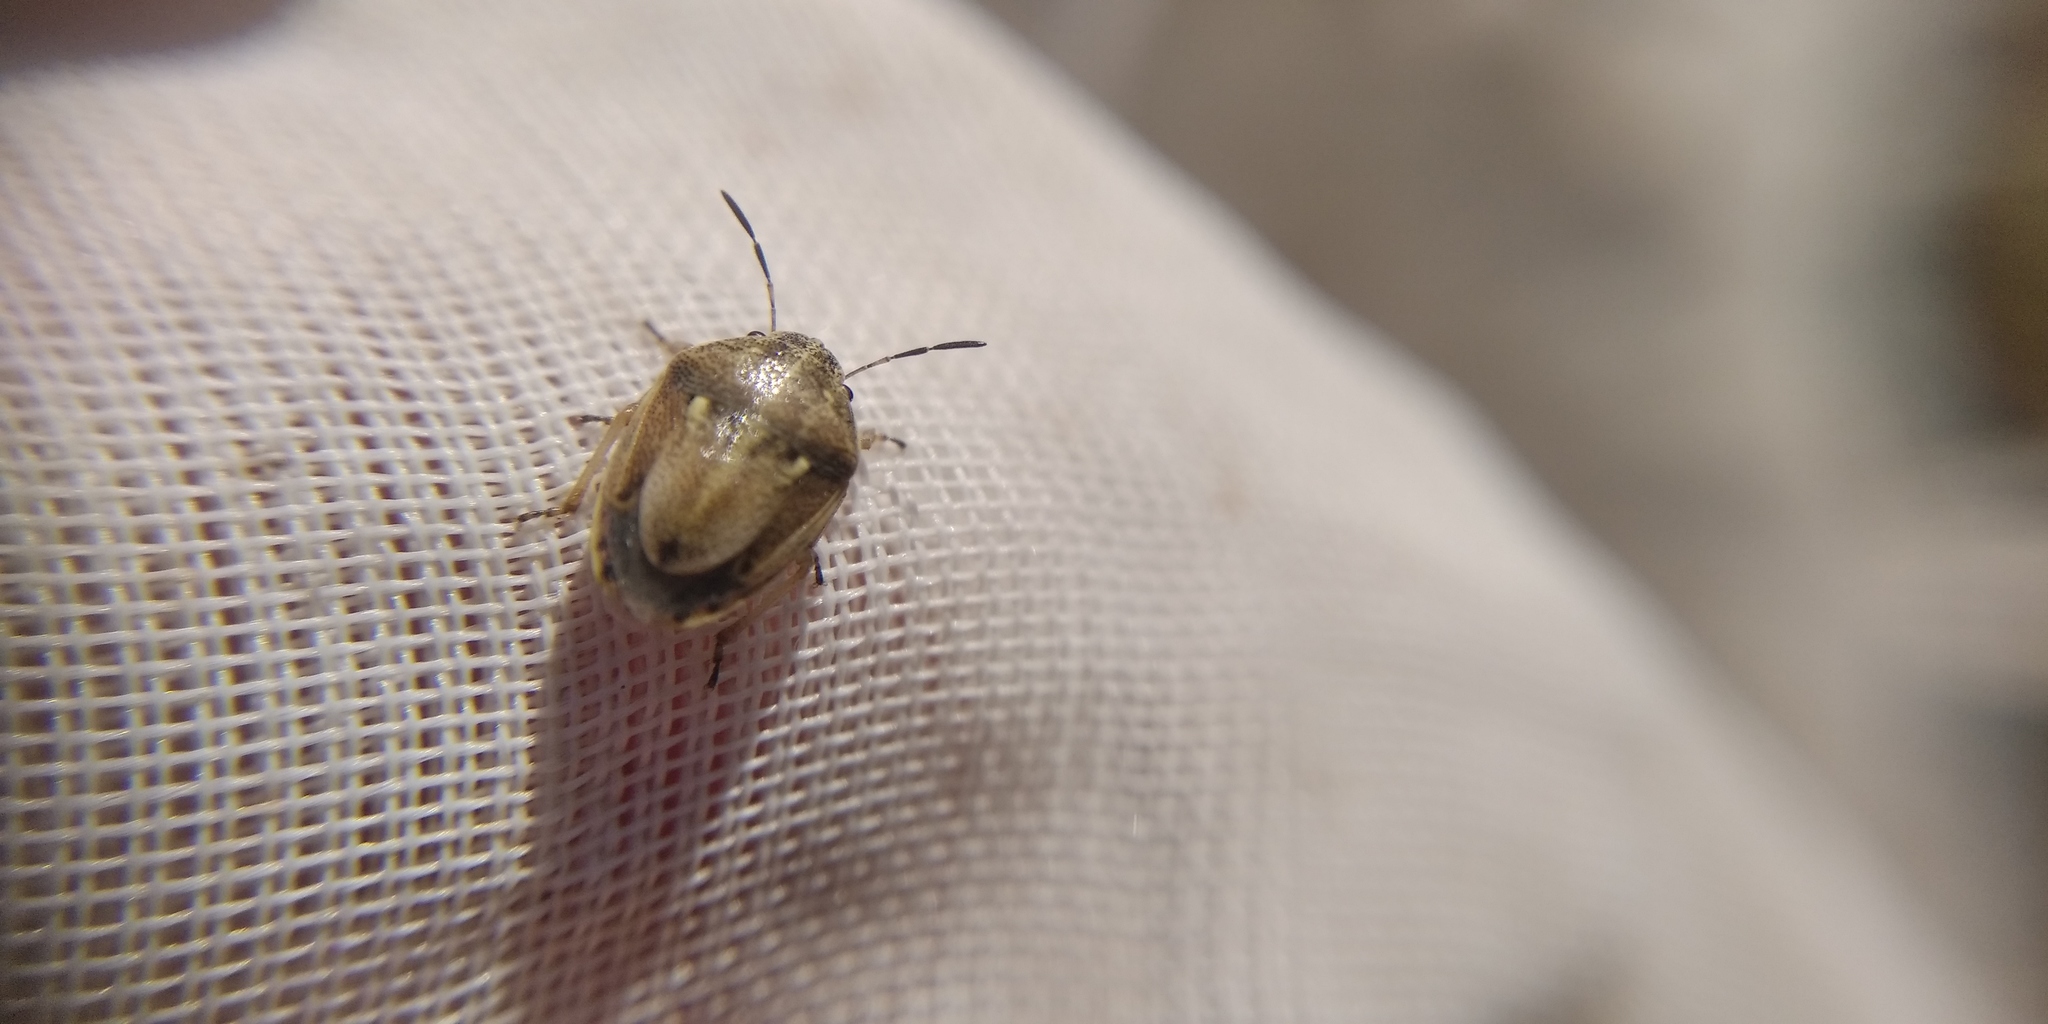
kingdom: Animalia
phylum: Arthropoda
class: Insecta
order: Hemiptera
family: Pentatomidae
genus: Neottiglossa
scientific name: Neottiglossa leporina
